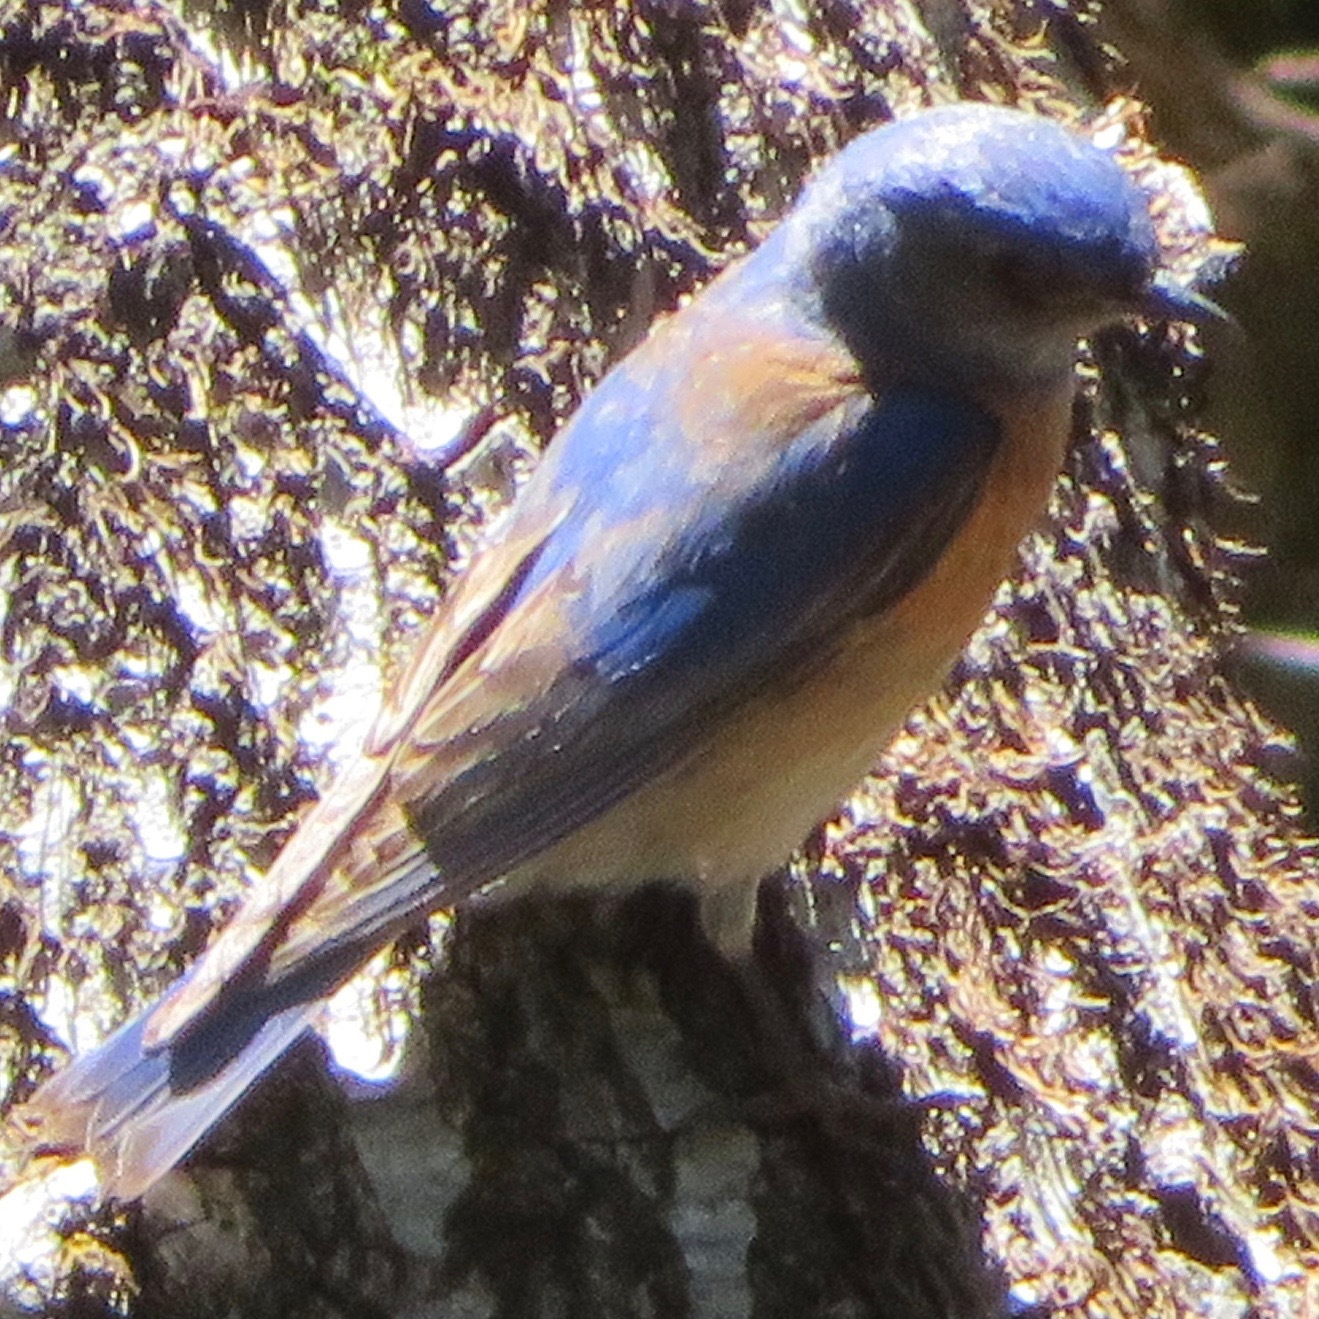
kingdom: Animalia
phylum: Chordata
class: Aves
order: Passeriformes
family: Turdidae
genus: Sialia
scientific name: Sialia mexicana
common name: Western bluebird
